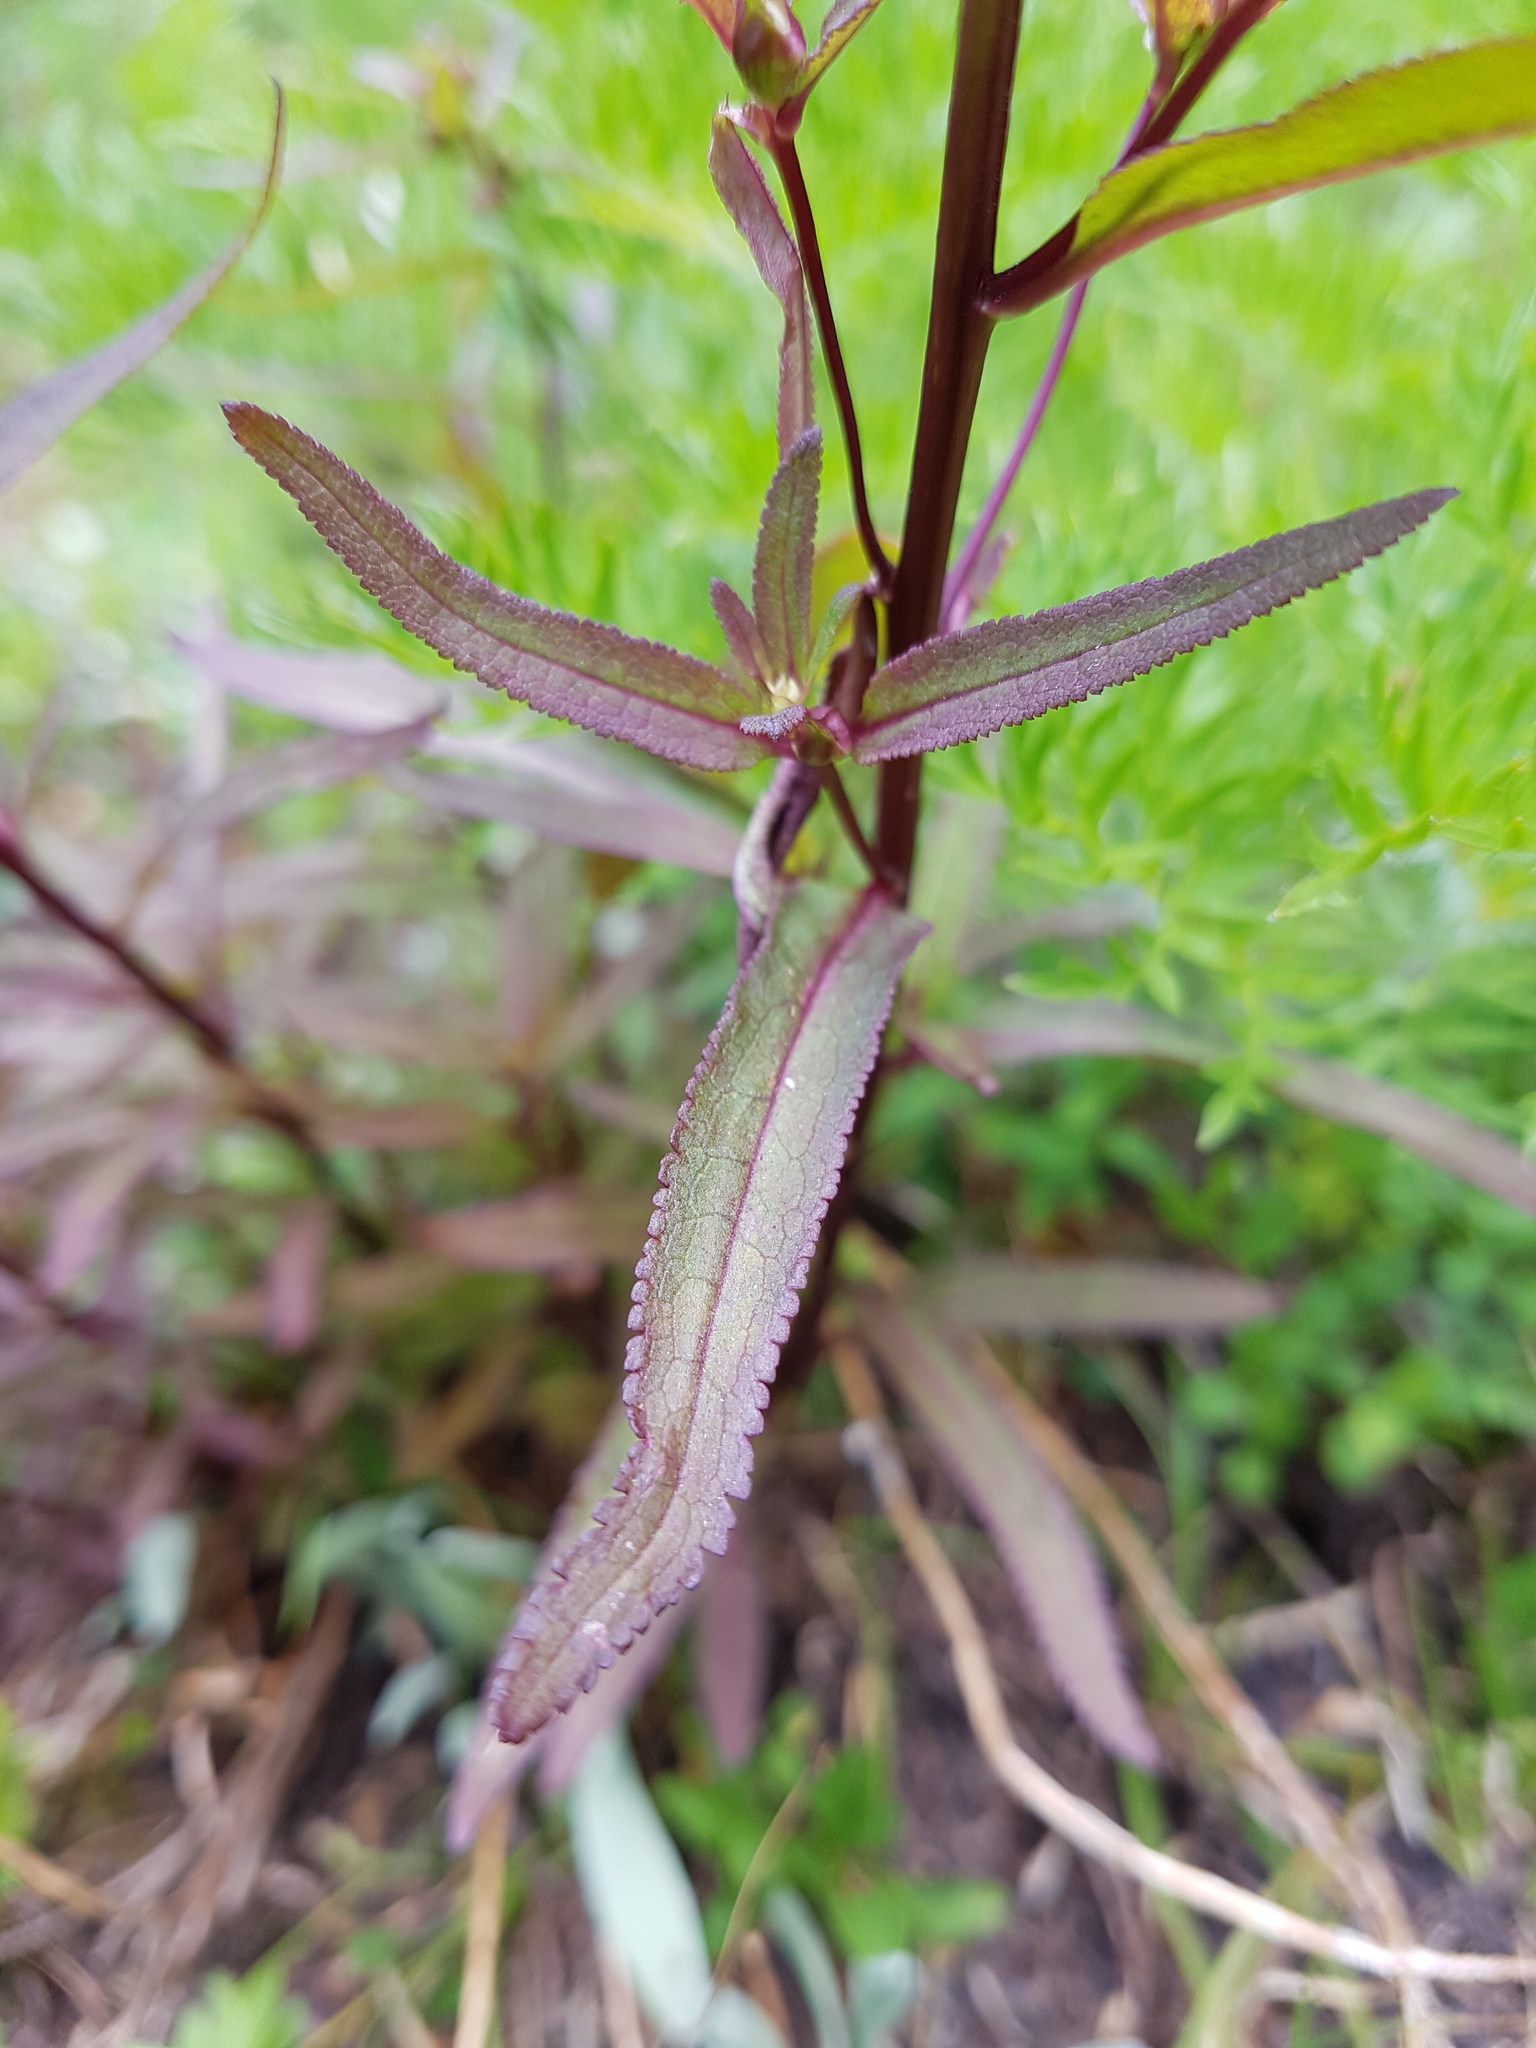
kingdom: Plantae
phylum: Tracheophyta
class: Magnoliopsida
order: Lamiales
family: Orobanchaceae
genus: Pedicularis
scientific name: Pedicularis racemosa
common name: Leafy lousewort
